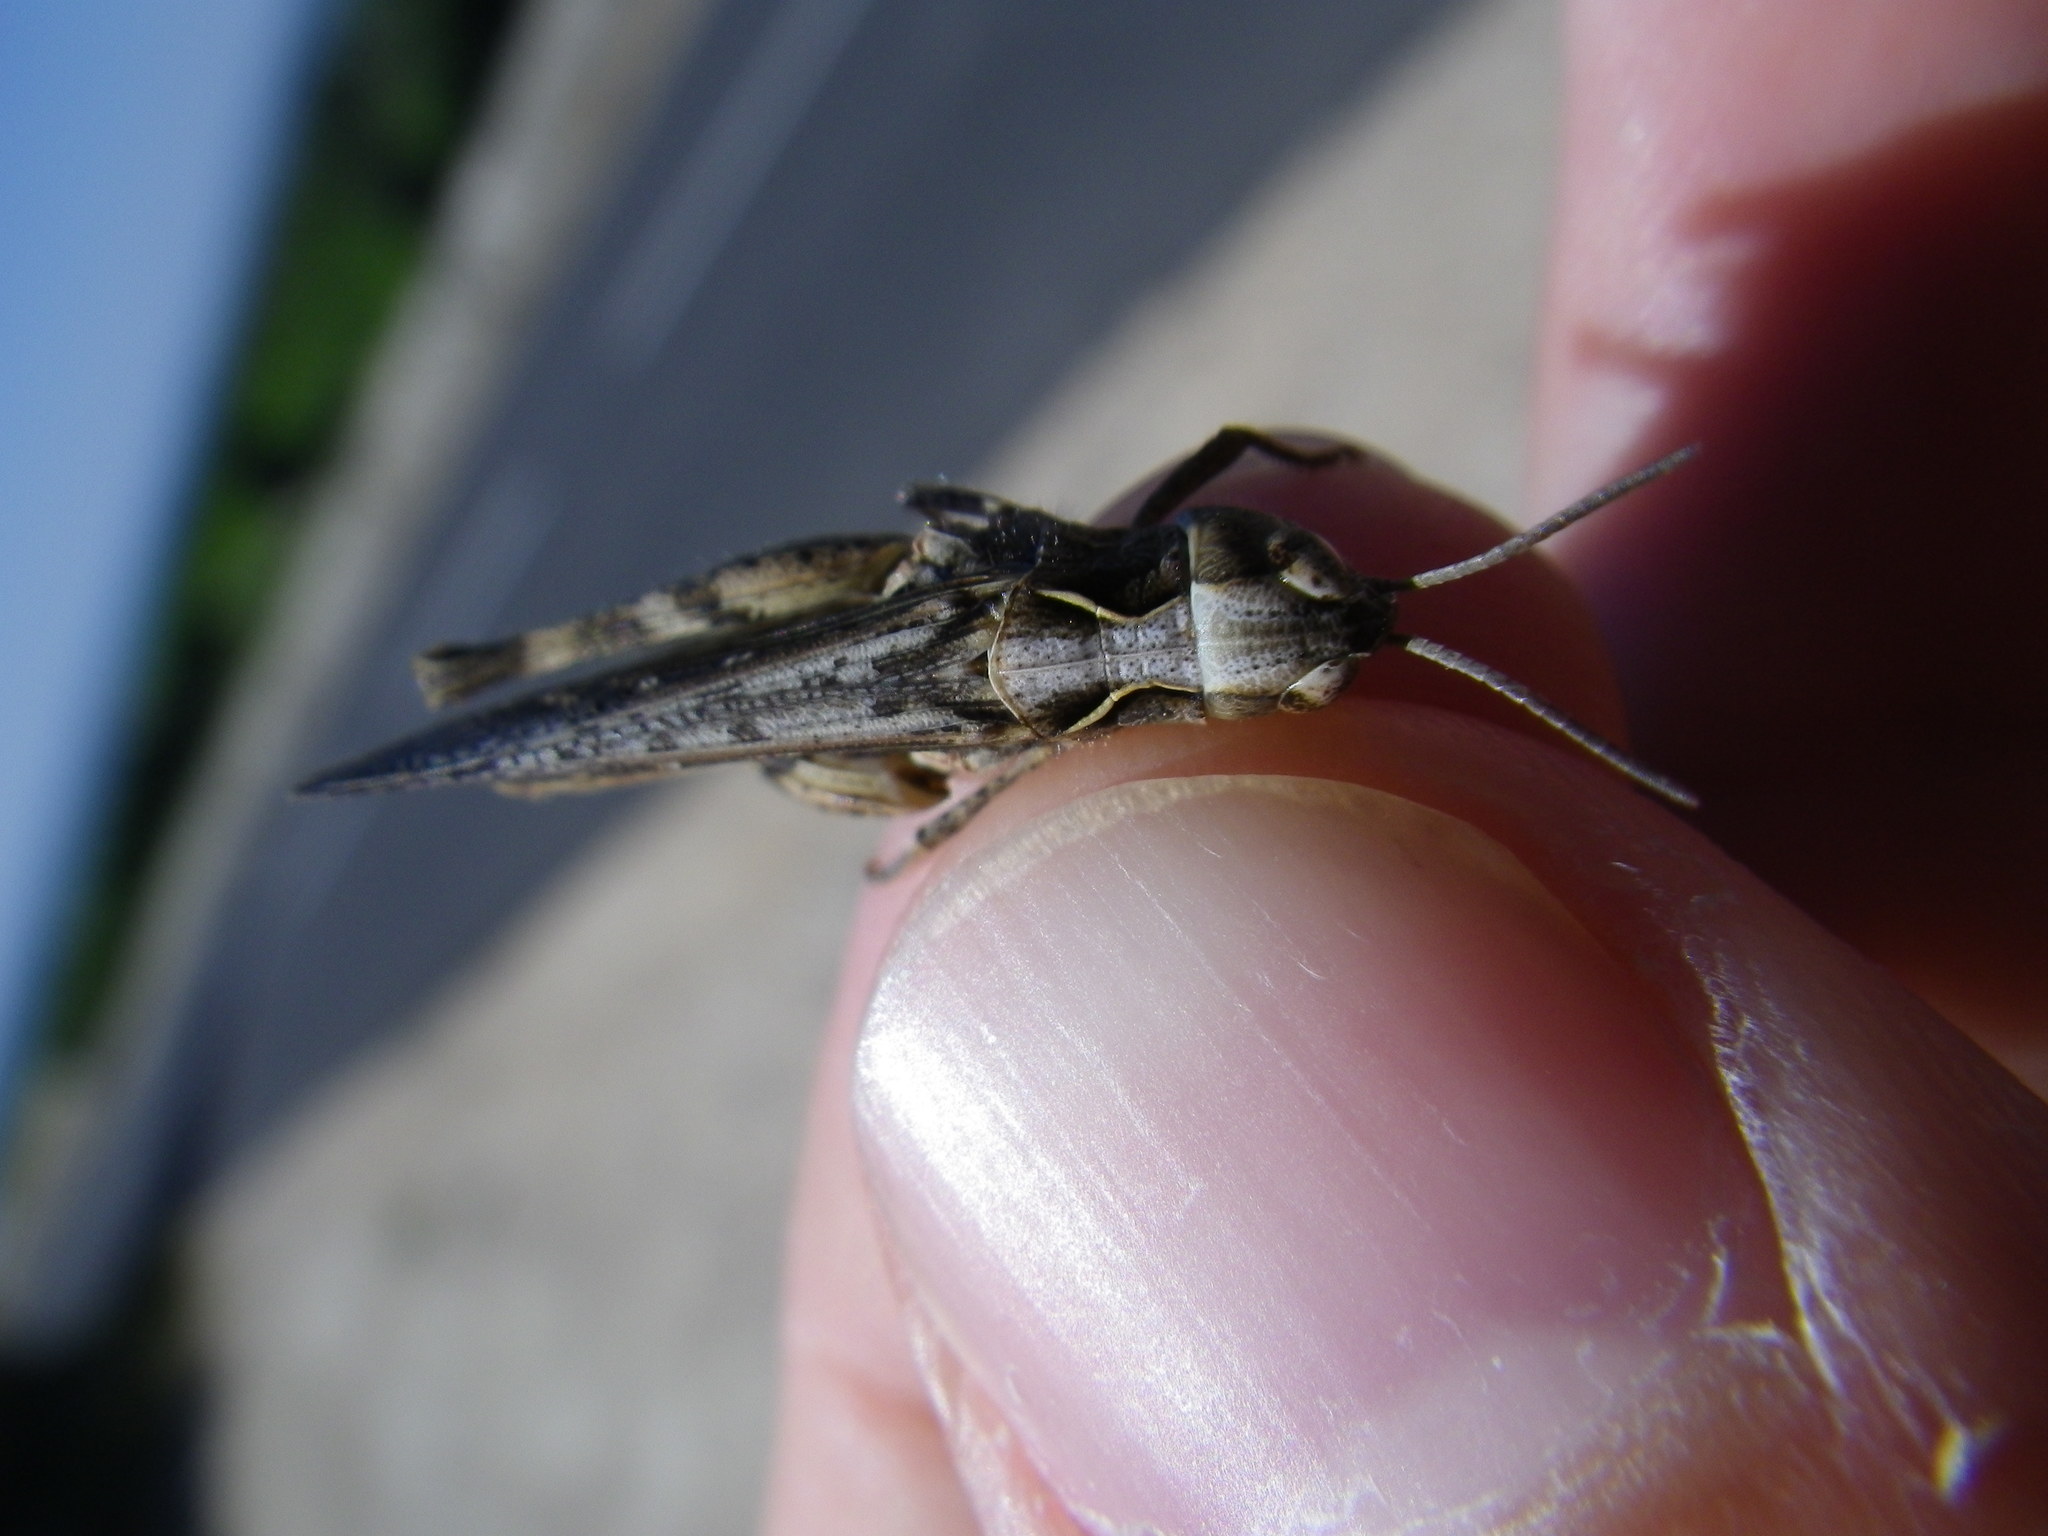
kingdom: Animalia
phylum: Arthropoda
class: Insecta
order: Orthoptera
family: Acrididae
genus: Omocestus
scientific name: Omocestus raymondi
